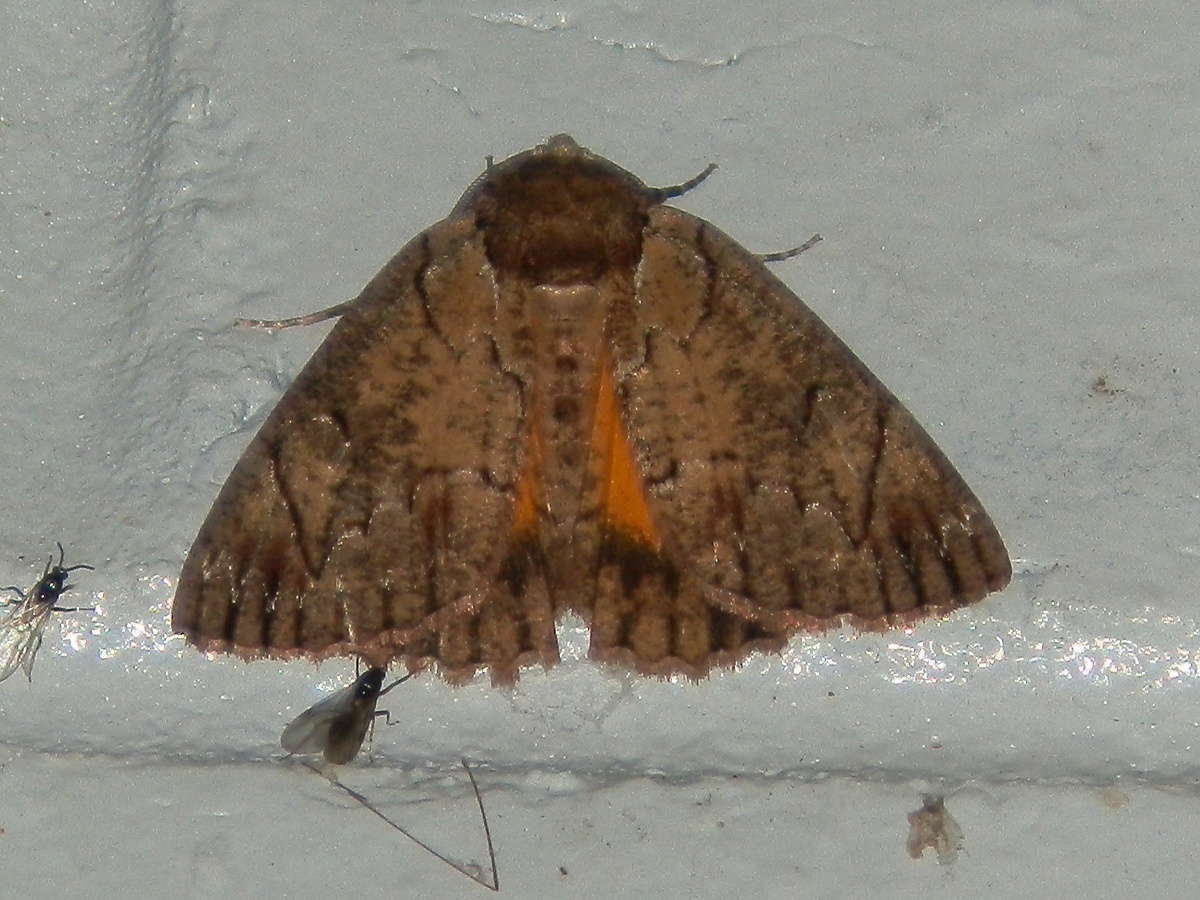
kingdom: Animalia
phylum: Arthropoda
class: Insecta
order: Lepidoptera
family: Geometridae
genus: Heliomystis
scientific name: Heliomystis electrica
